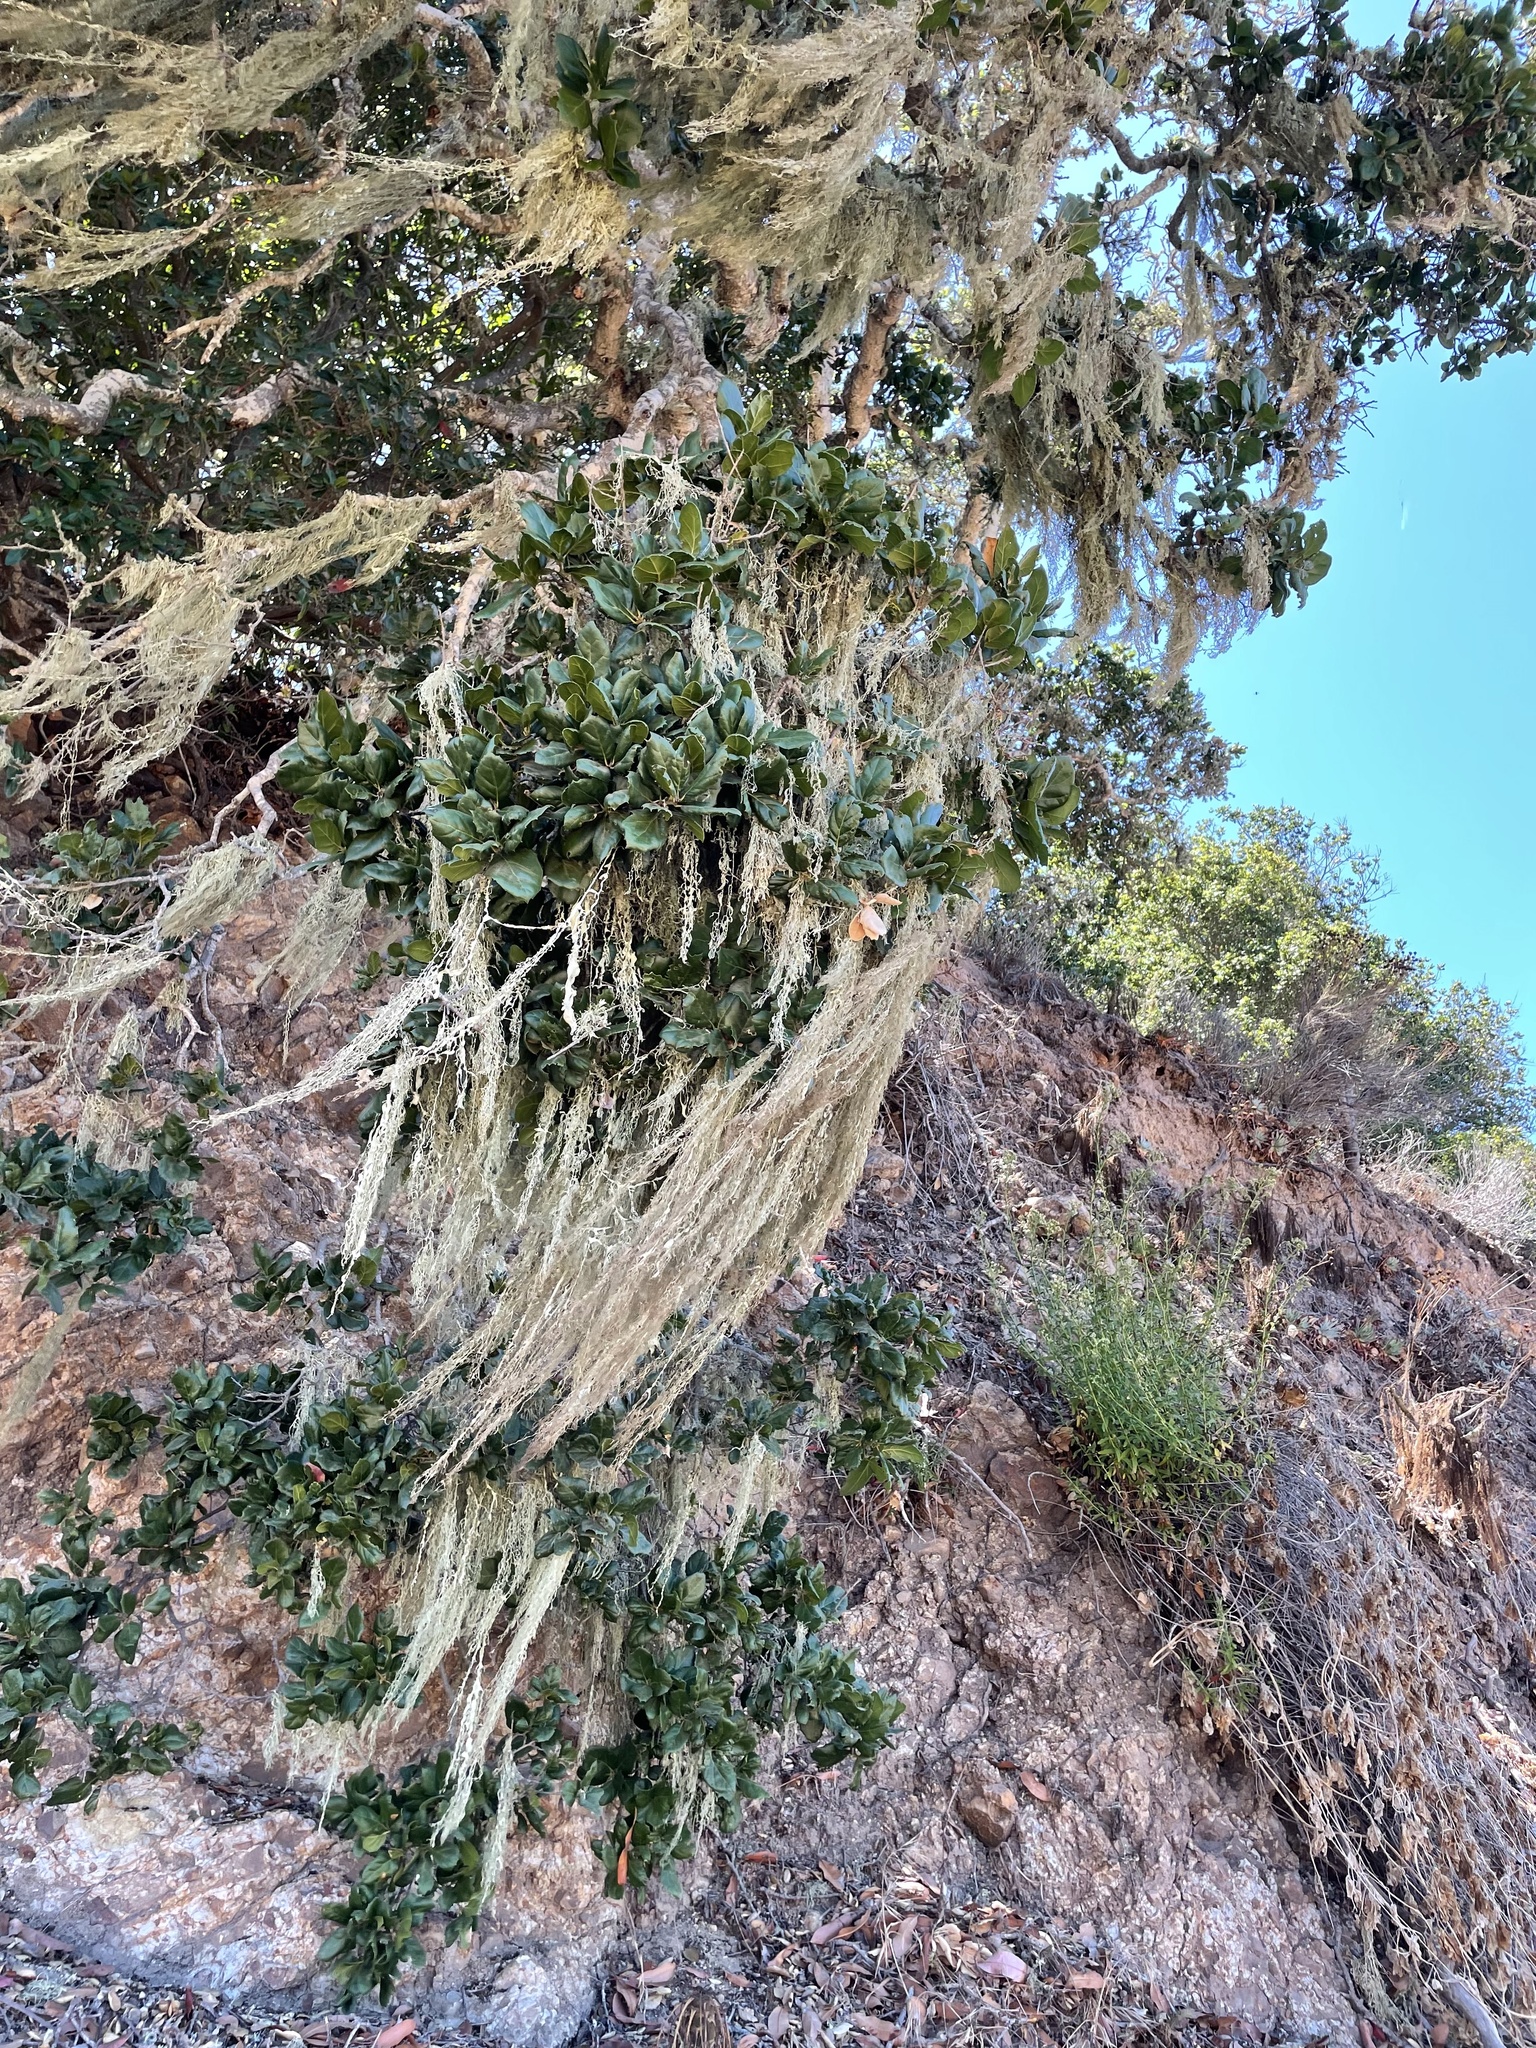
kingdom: Fungi
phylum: Ascomycota
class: Lecanoromycetes
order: Lecanorales
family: Ramalinaceae
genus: Ramalina
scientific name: Ramalina menziesii
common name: Lace lichen
